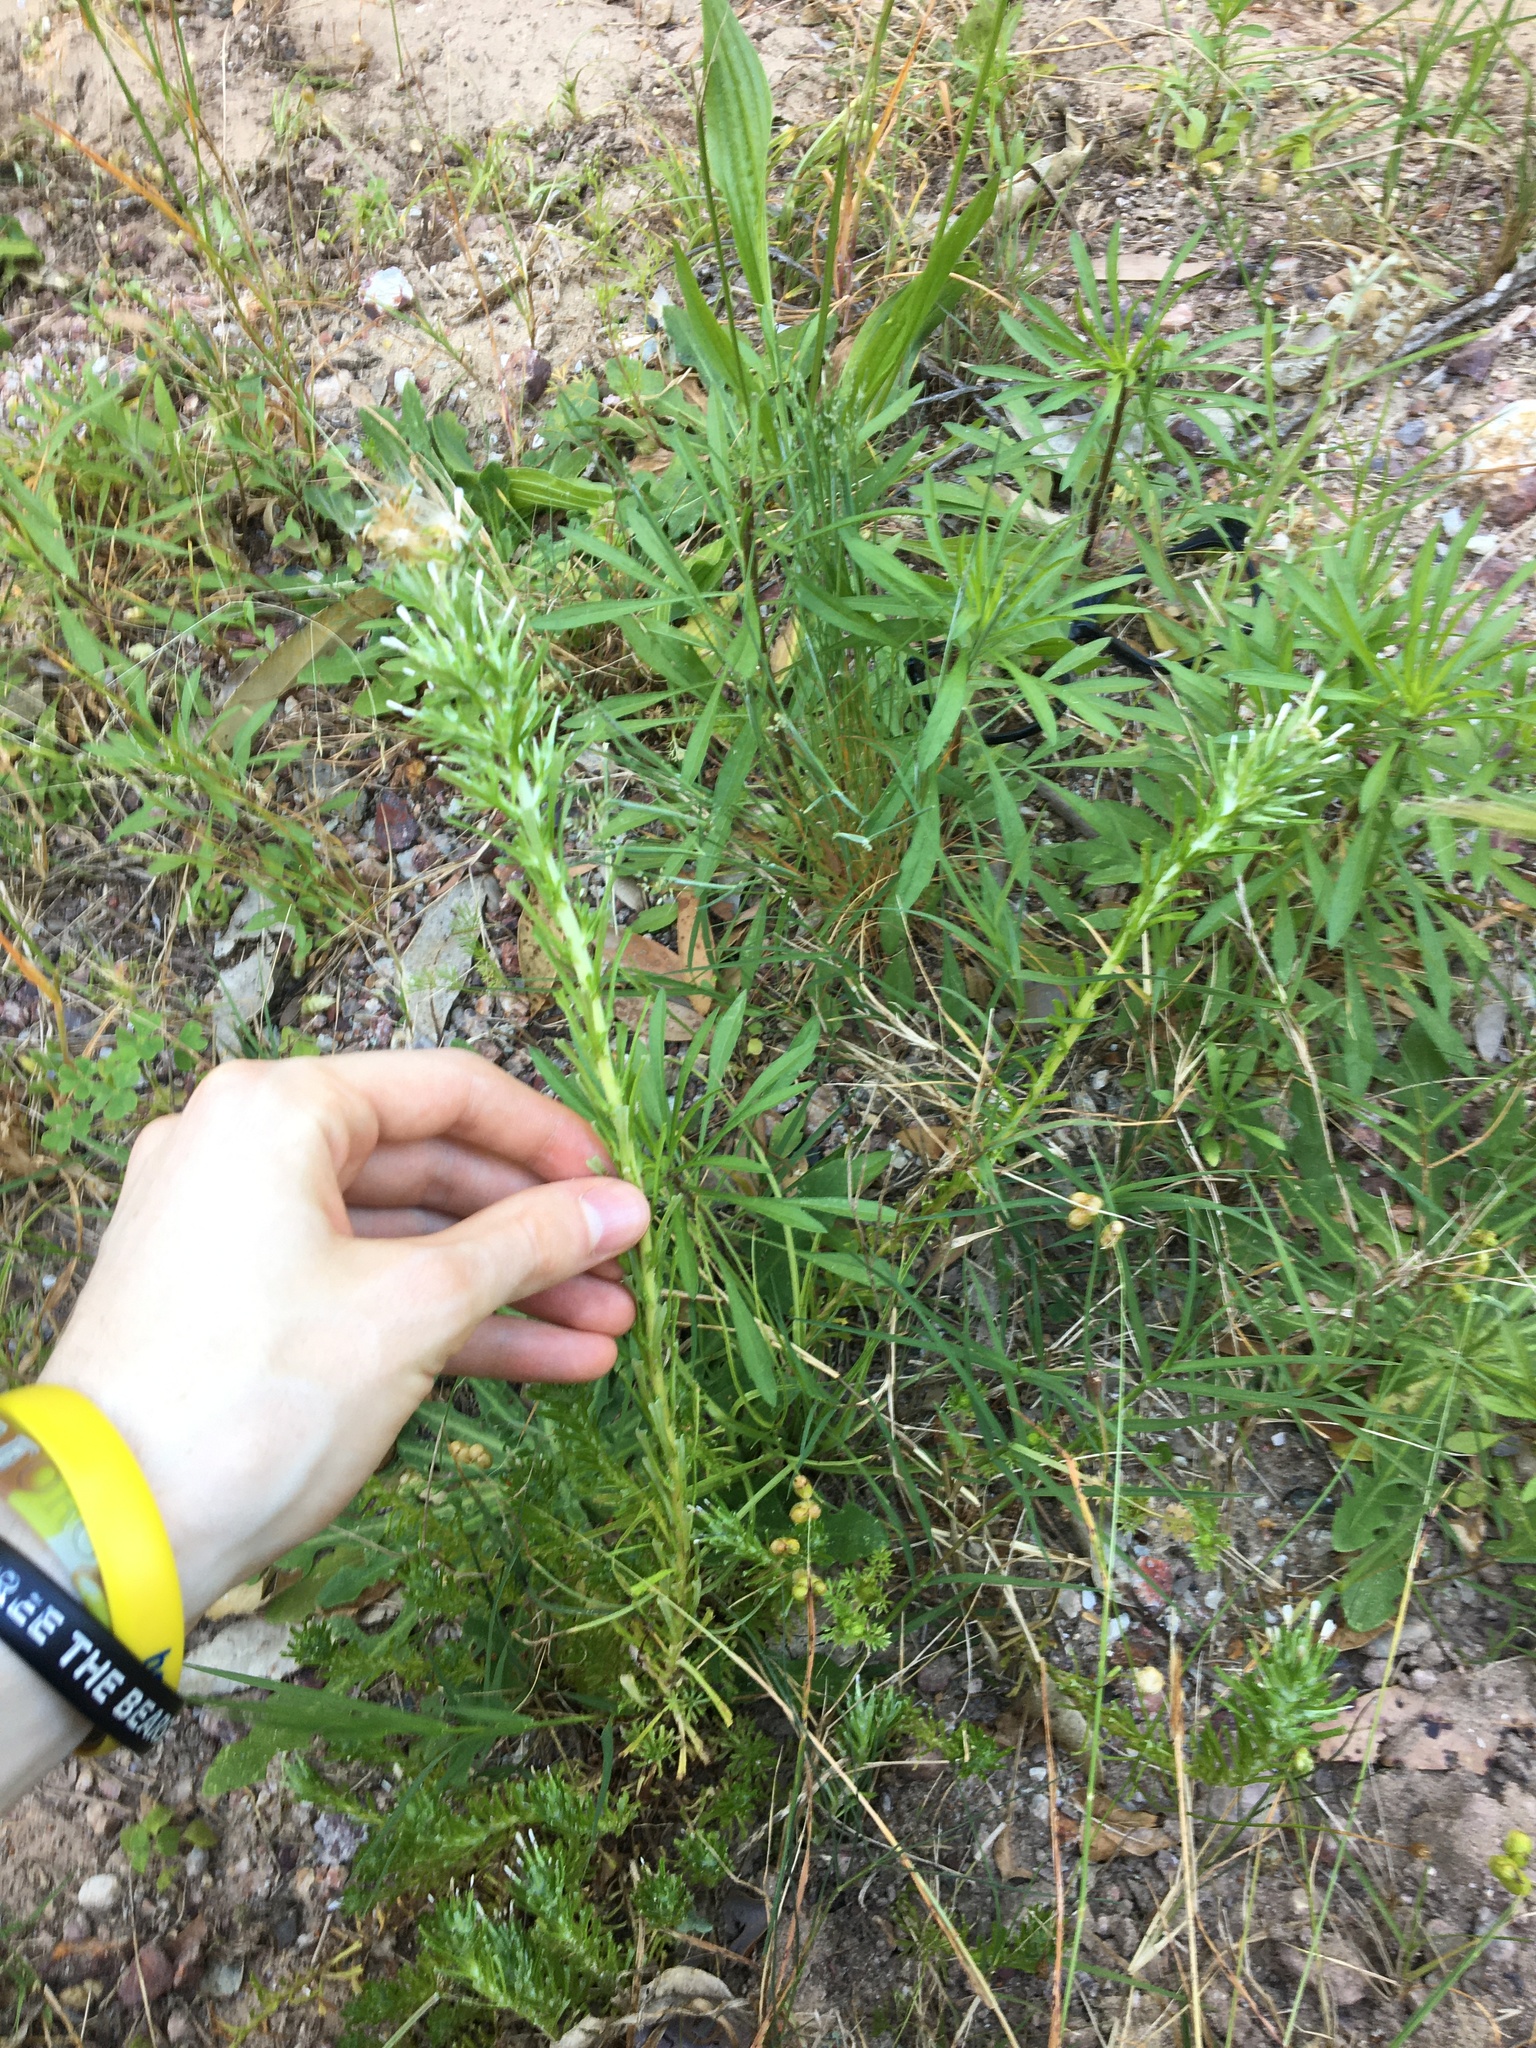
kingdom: Plantae
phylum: Tracheophyta
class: Magnoliopsida
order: Asterales
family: Asteraceae
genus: Facelis
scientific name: Facelis retusa
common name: Annual trampweed
